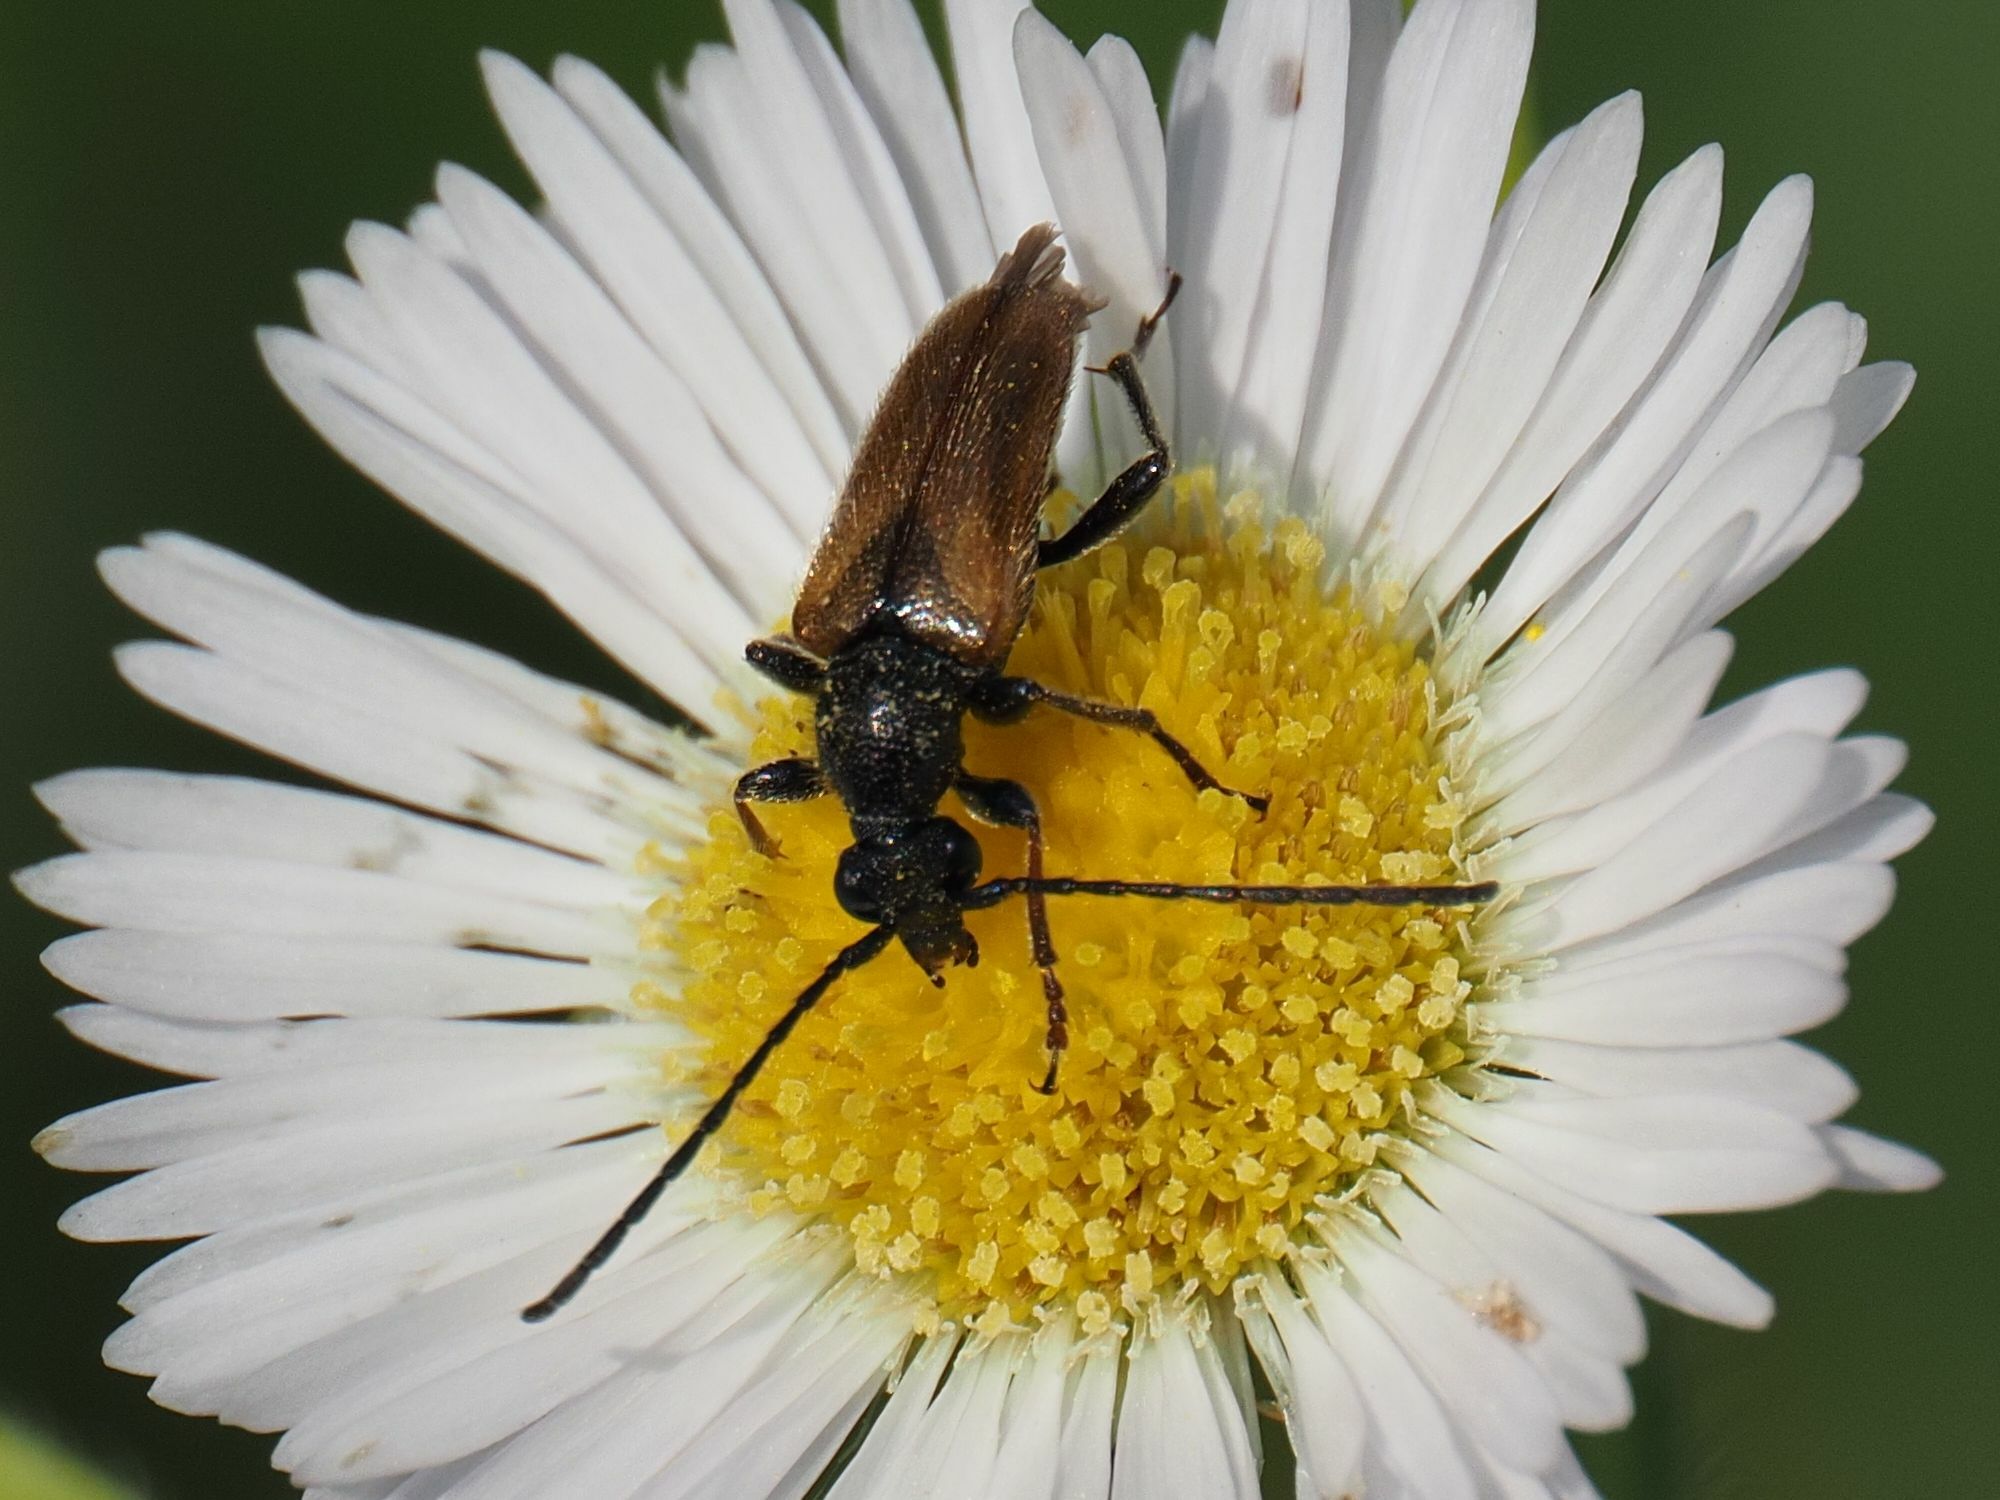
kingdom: Animalia
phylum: Arthropoda
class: Insecta
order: Coleoptera
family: Cerambycidae
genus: Pseudovadonia
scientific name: Pseudovadonia livida
